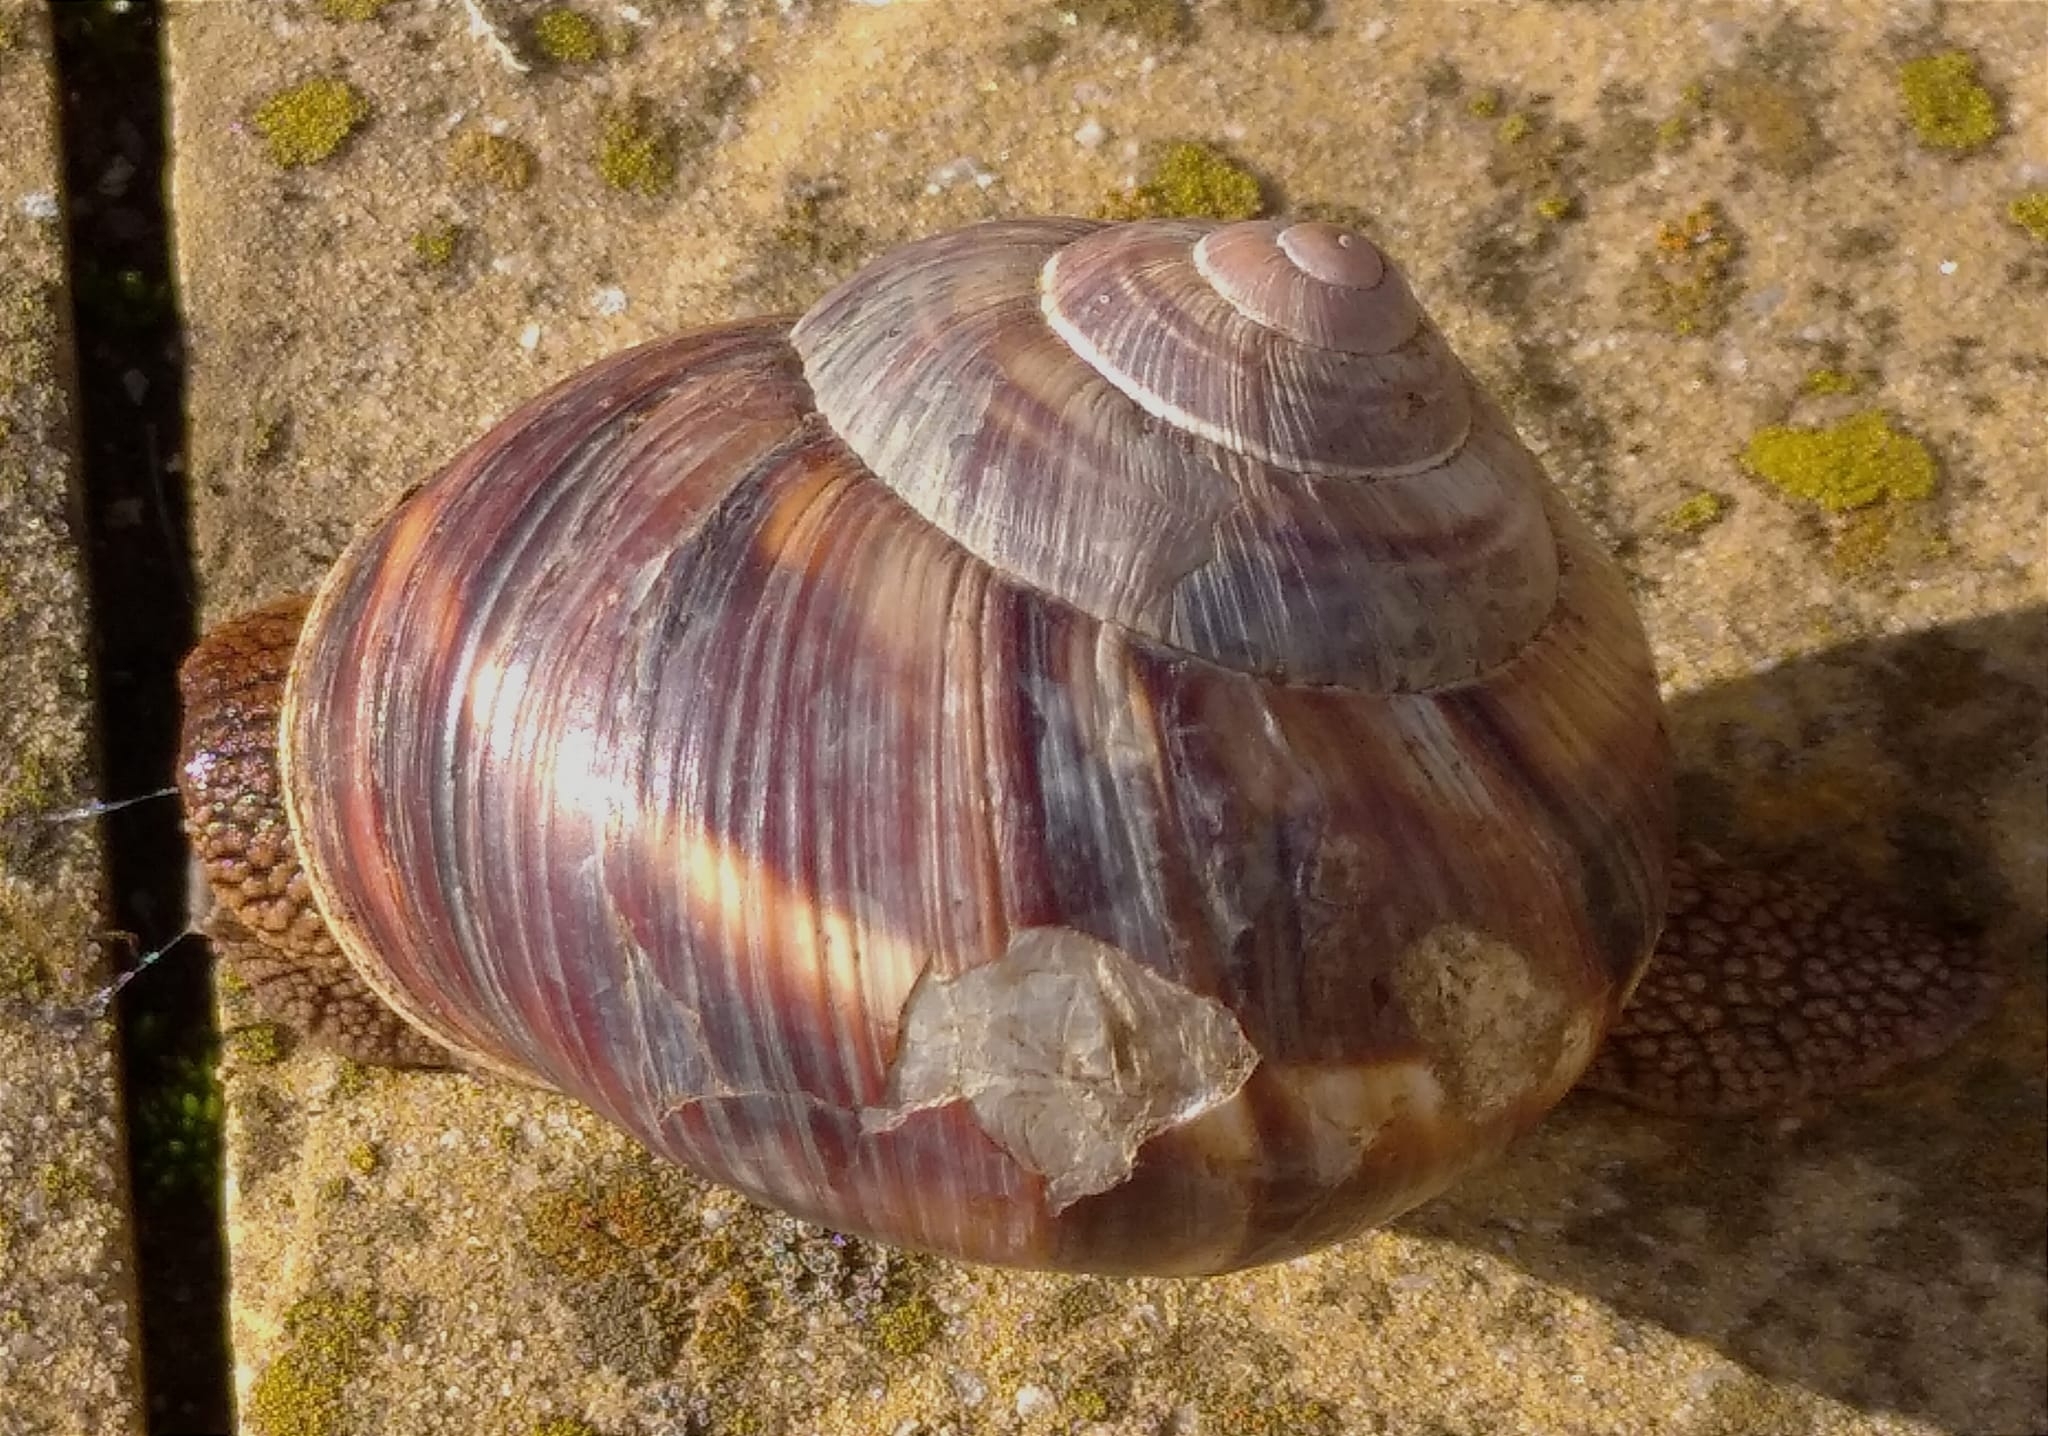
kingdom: Animalia
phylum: Mollusca
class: Gastropoda
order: Stylommatophora
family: Helicidae
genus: Helix
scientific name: Helix lucorum
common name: Turkish snail
